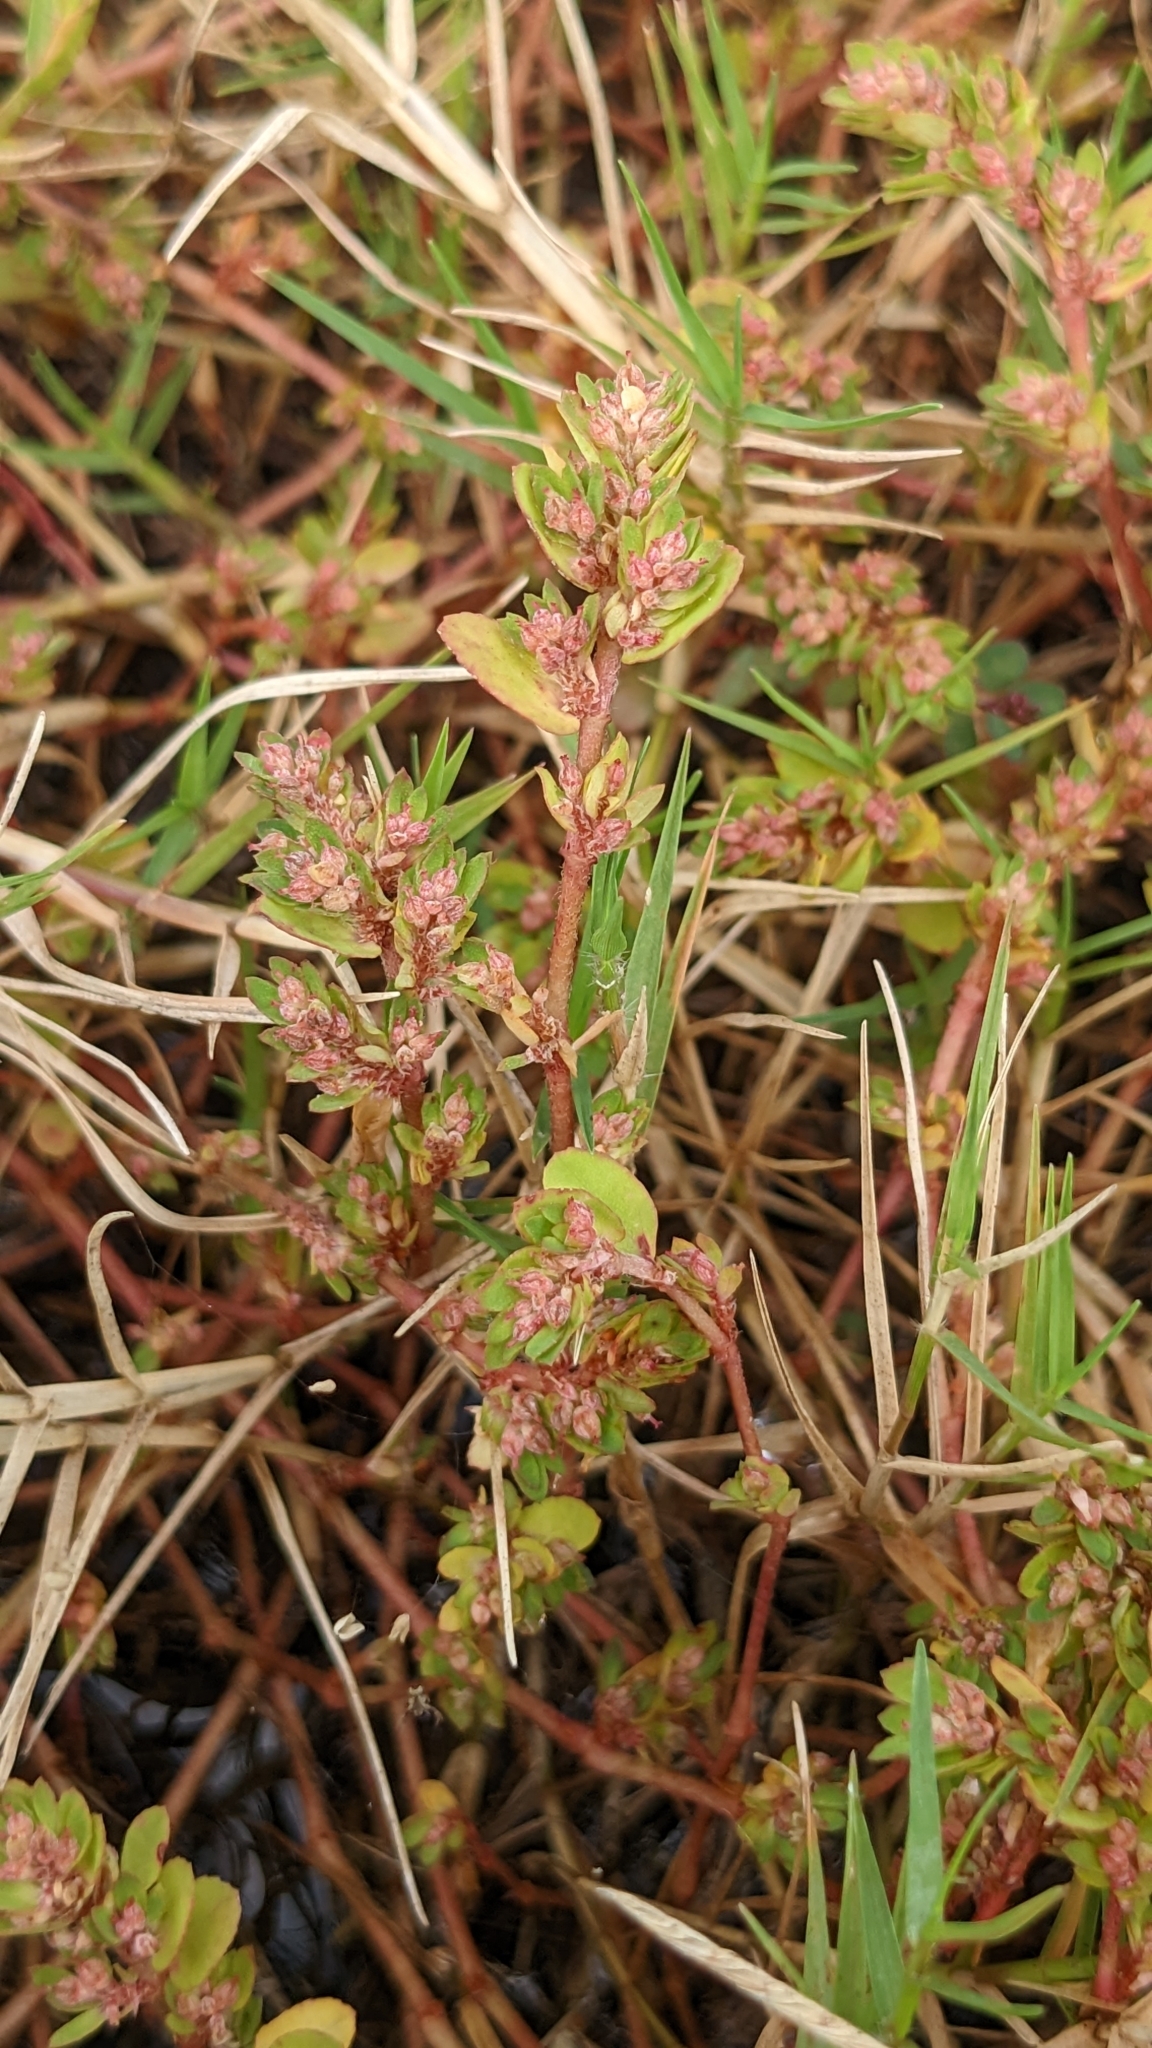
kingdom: Plantae
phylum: Tracheophyta
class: Magnoliopsida
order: Malpighiales
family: Euphorbiaceae
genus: Euphorbia
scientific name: Euphorbia thymifolia
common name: Gulf sandmat
